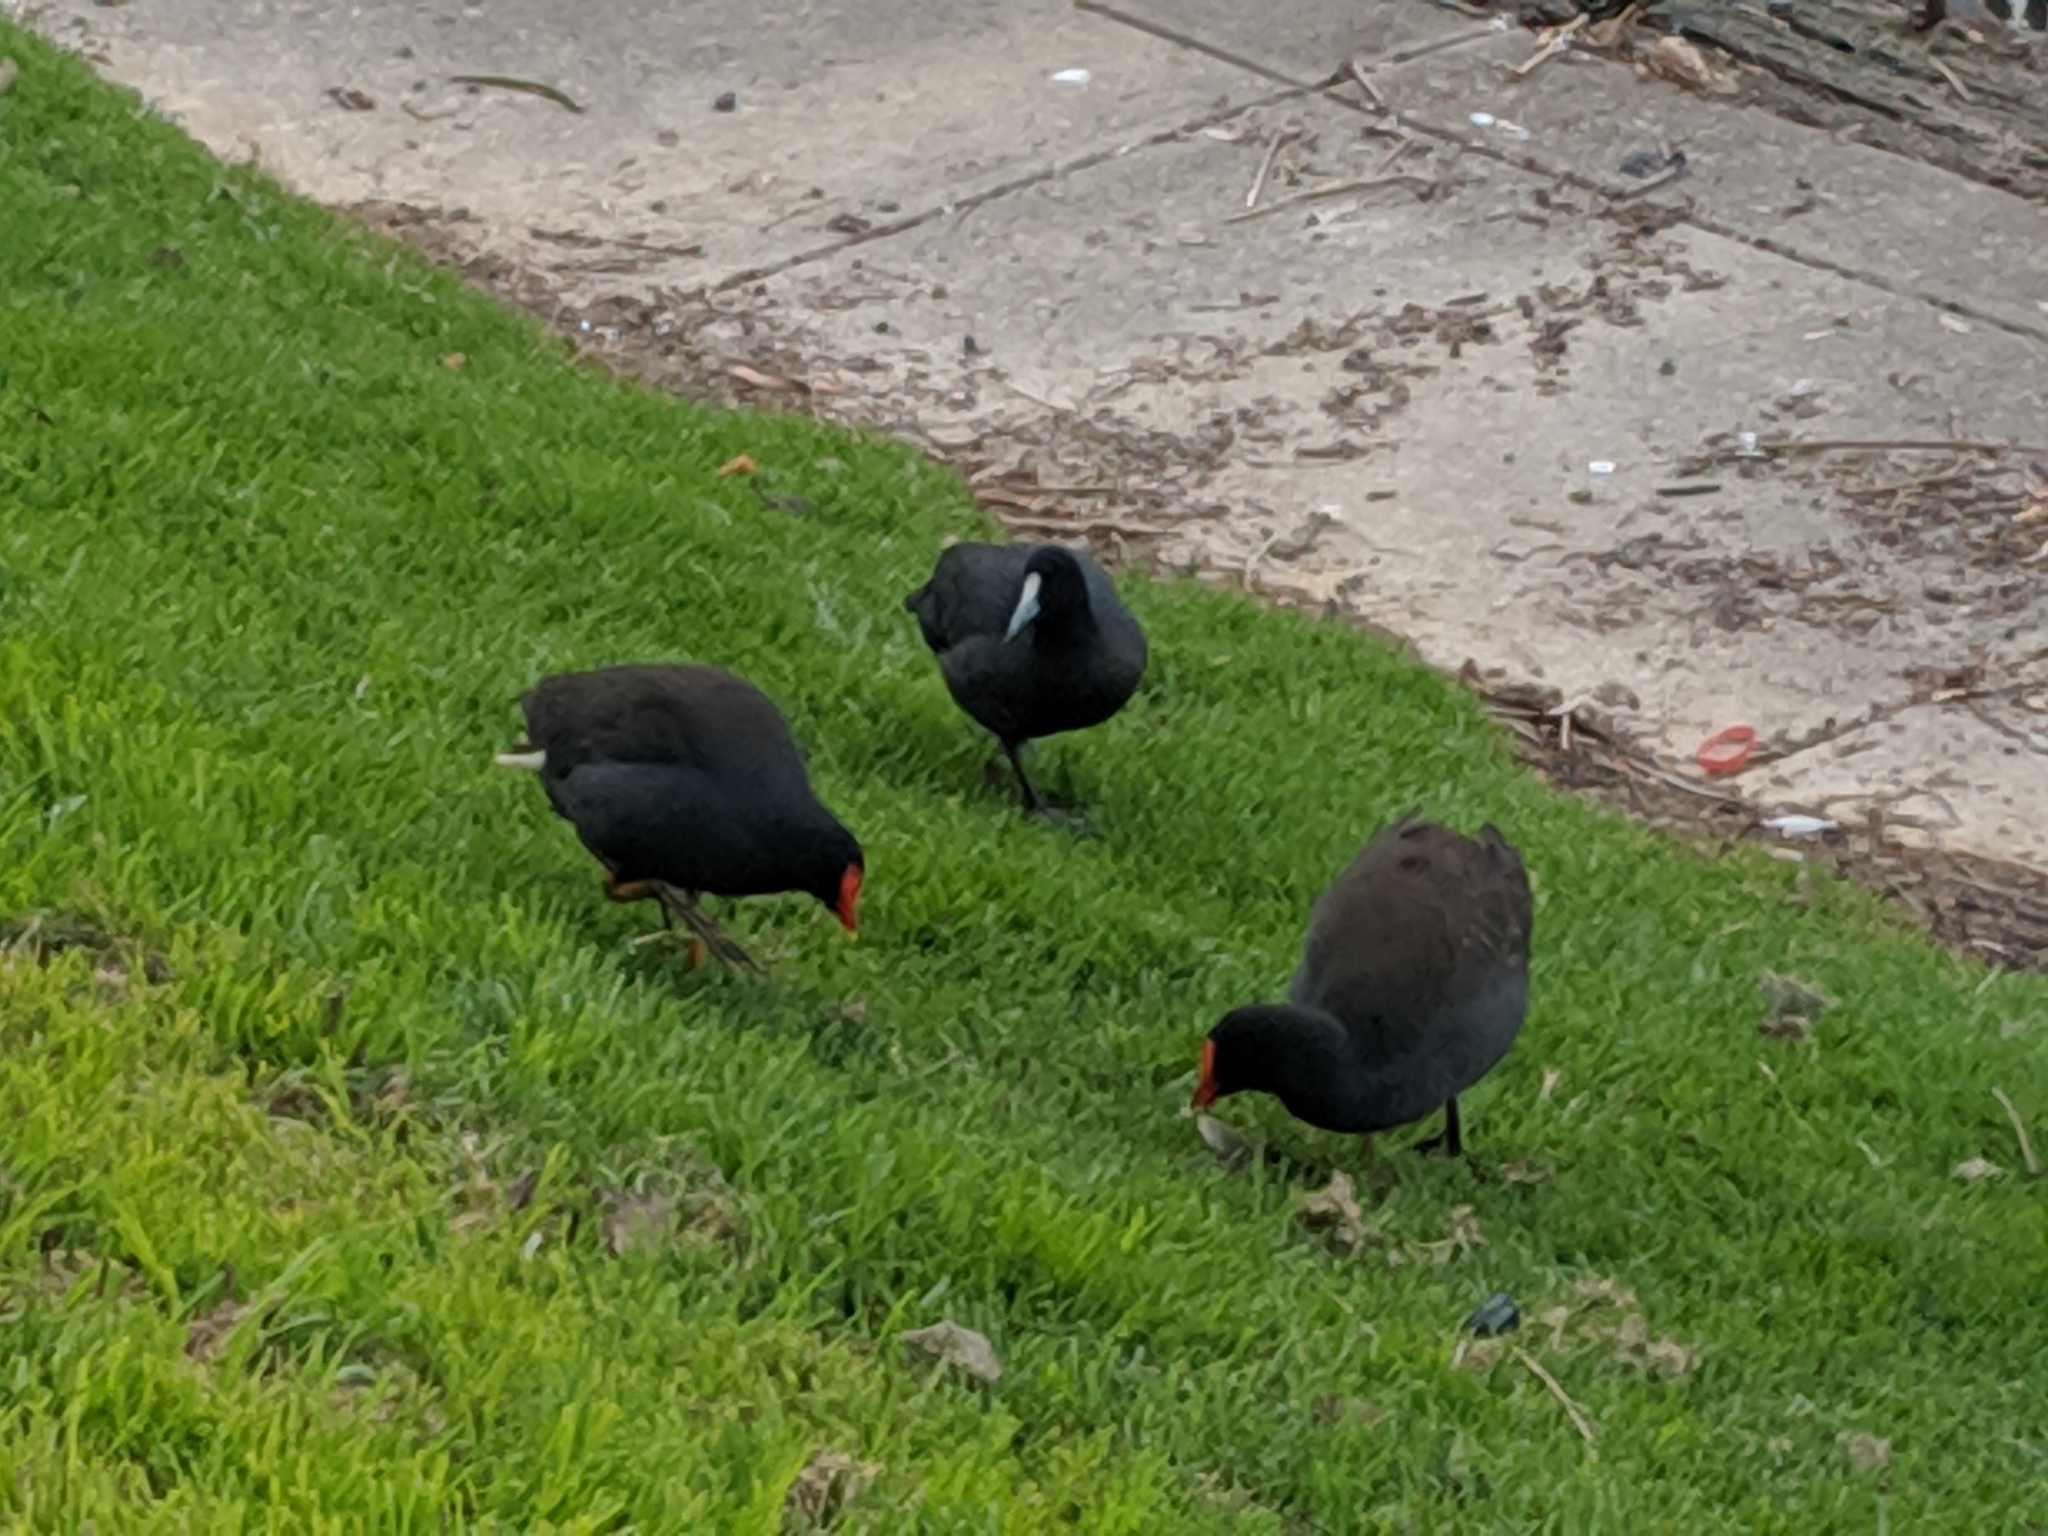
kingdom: Animalia
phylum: Chordata
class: Aves
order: Gruiformes
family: Rallidae
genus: Gallinula
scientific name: Gallinula tenebrosa
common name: Dusky moorhen
